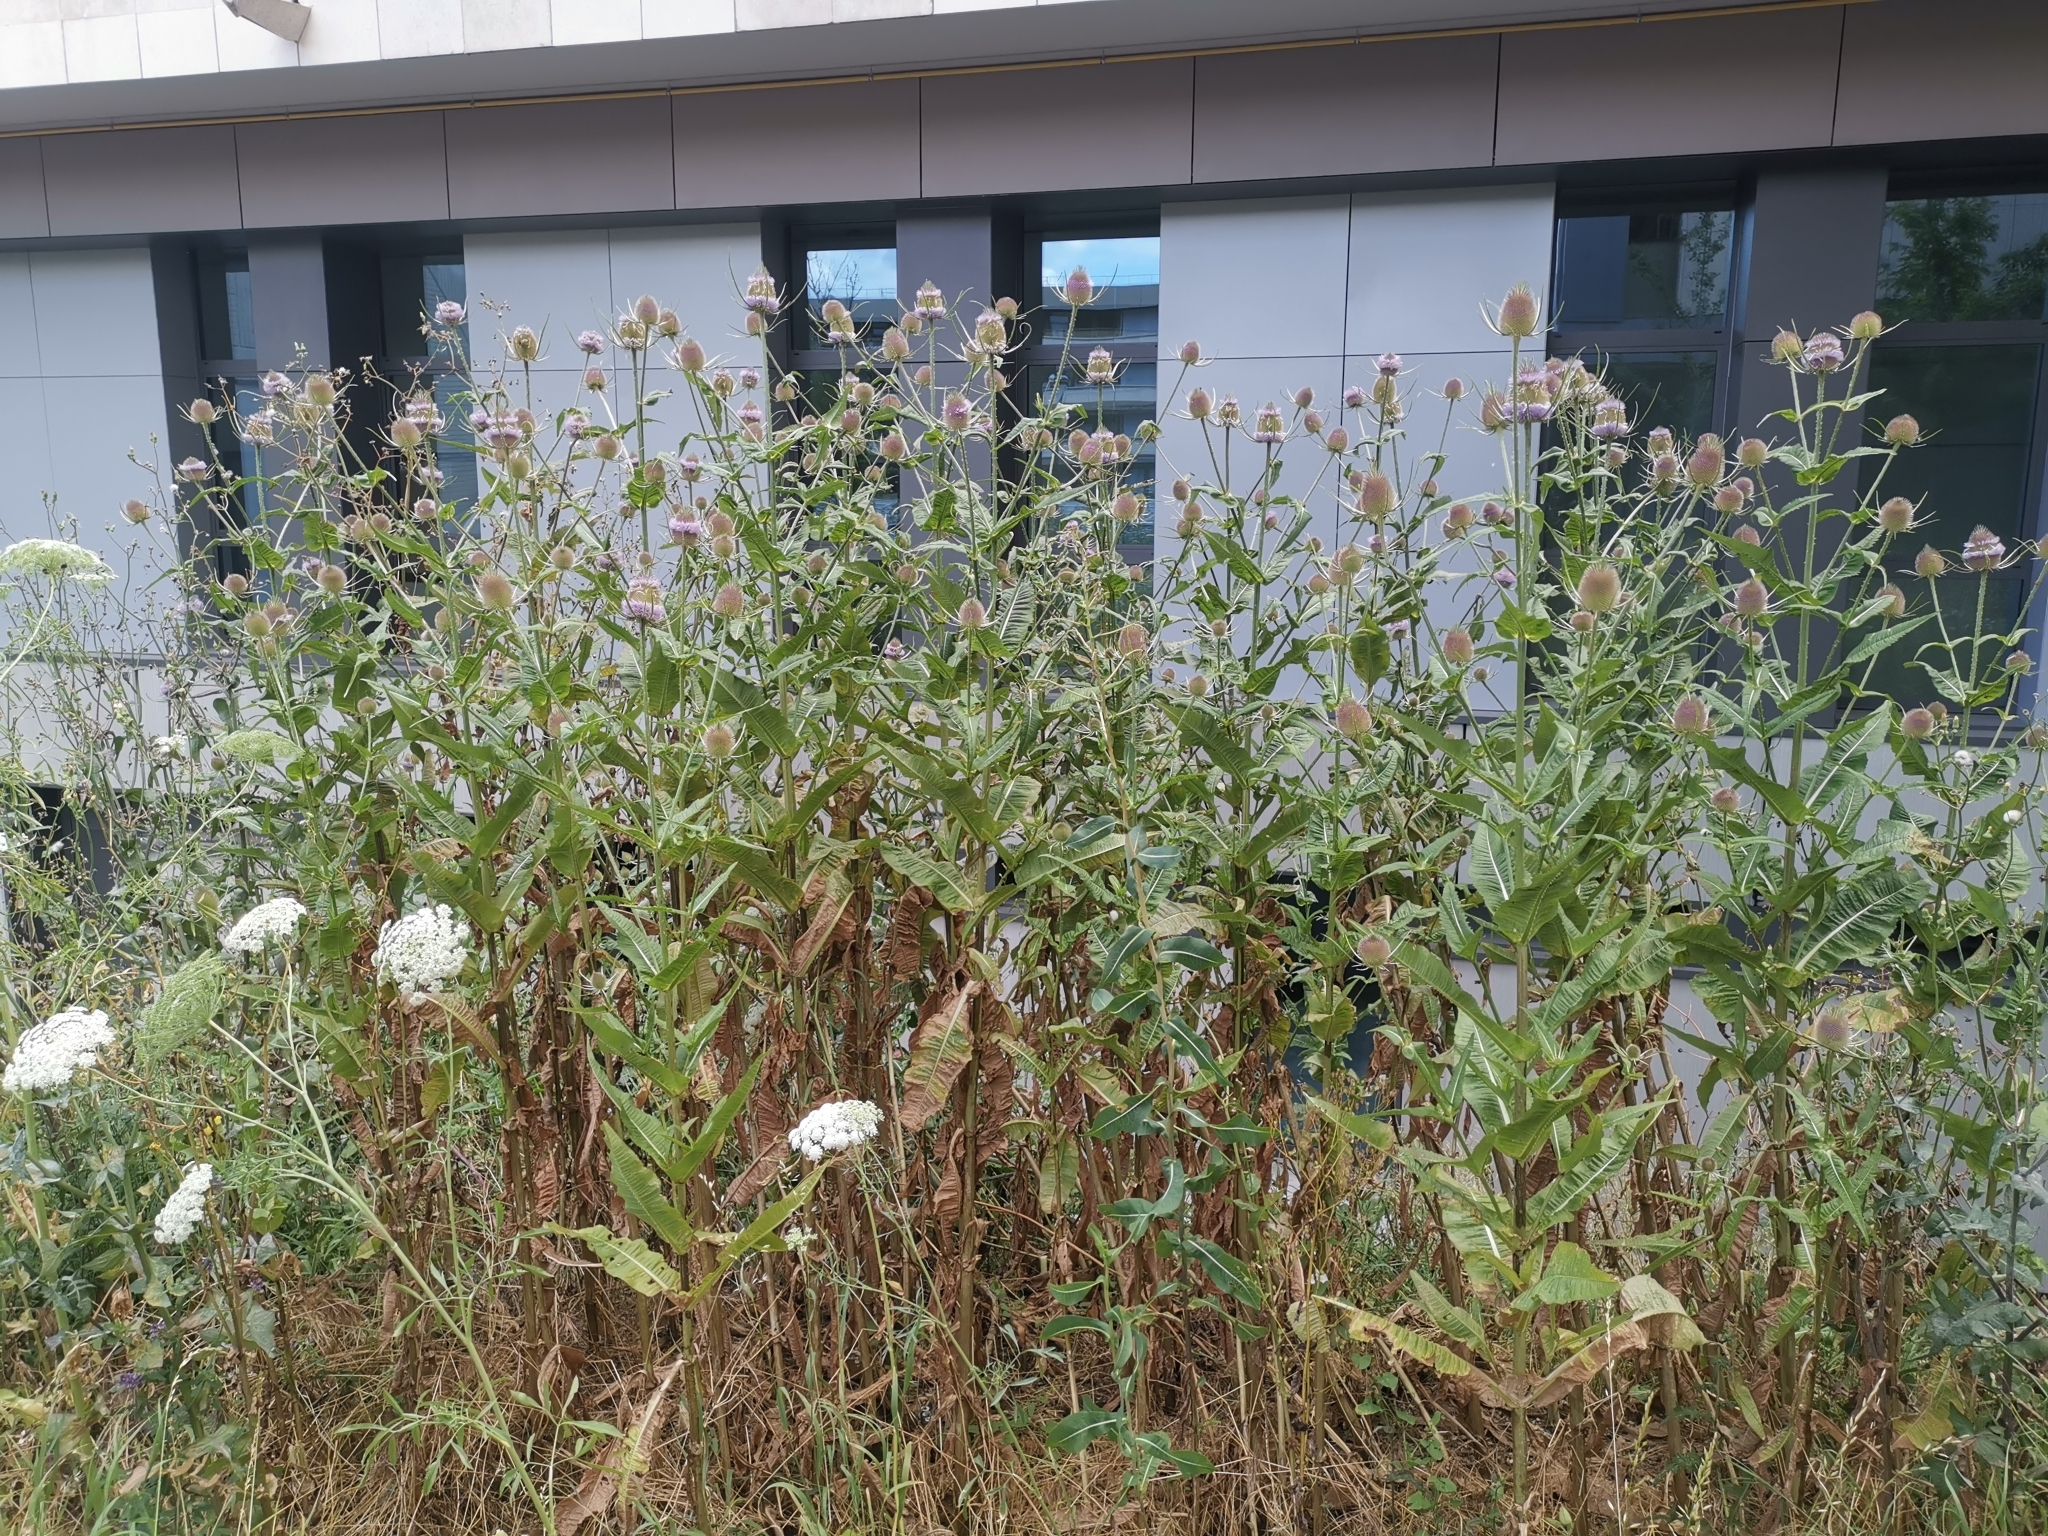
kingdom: Plantae
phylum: Tracheophyta
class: Magnoliopsida
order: Dipsacales
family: Caprifoliaceae
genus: Dipsacus
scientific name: Dipsacus fullonum
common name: Teasel
